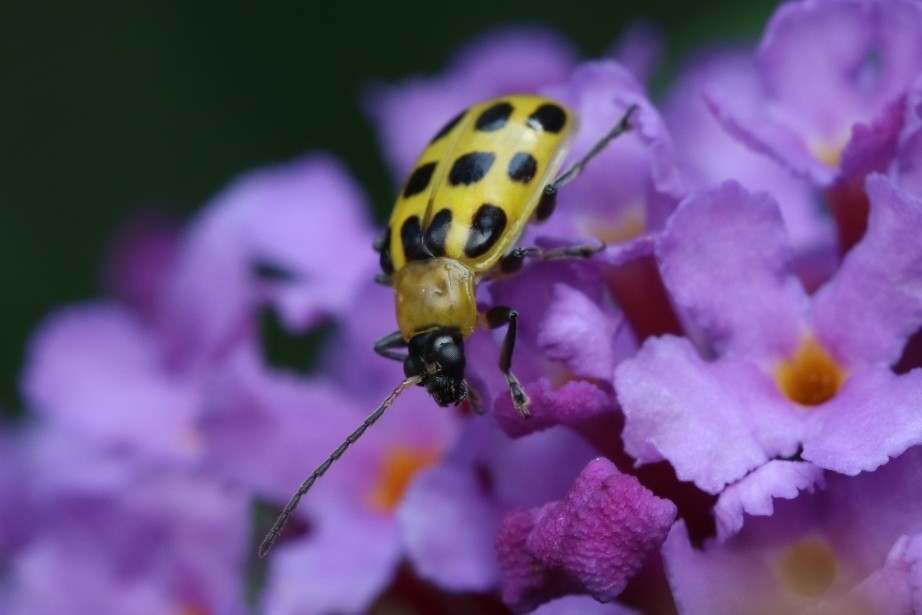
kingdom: Animalia
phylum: Arthropoda
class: Insecta
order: Coleoptera
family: Chrysomelidae
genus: Diabrotica
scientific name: Diabrotica undecimpunctata
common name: Spotted cucumber beetle
